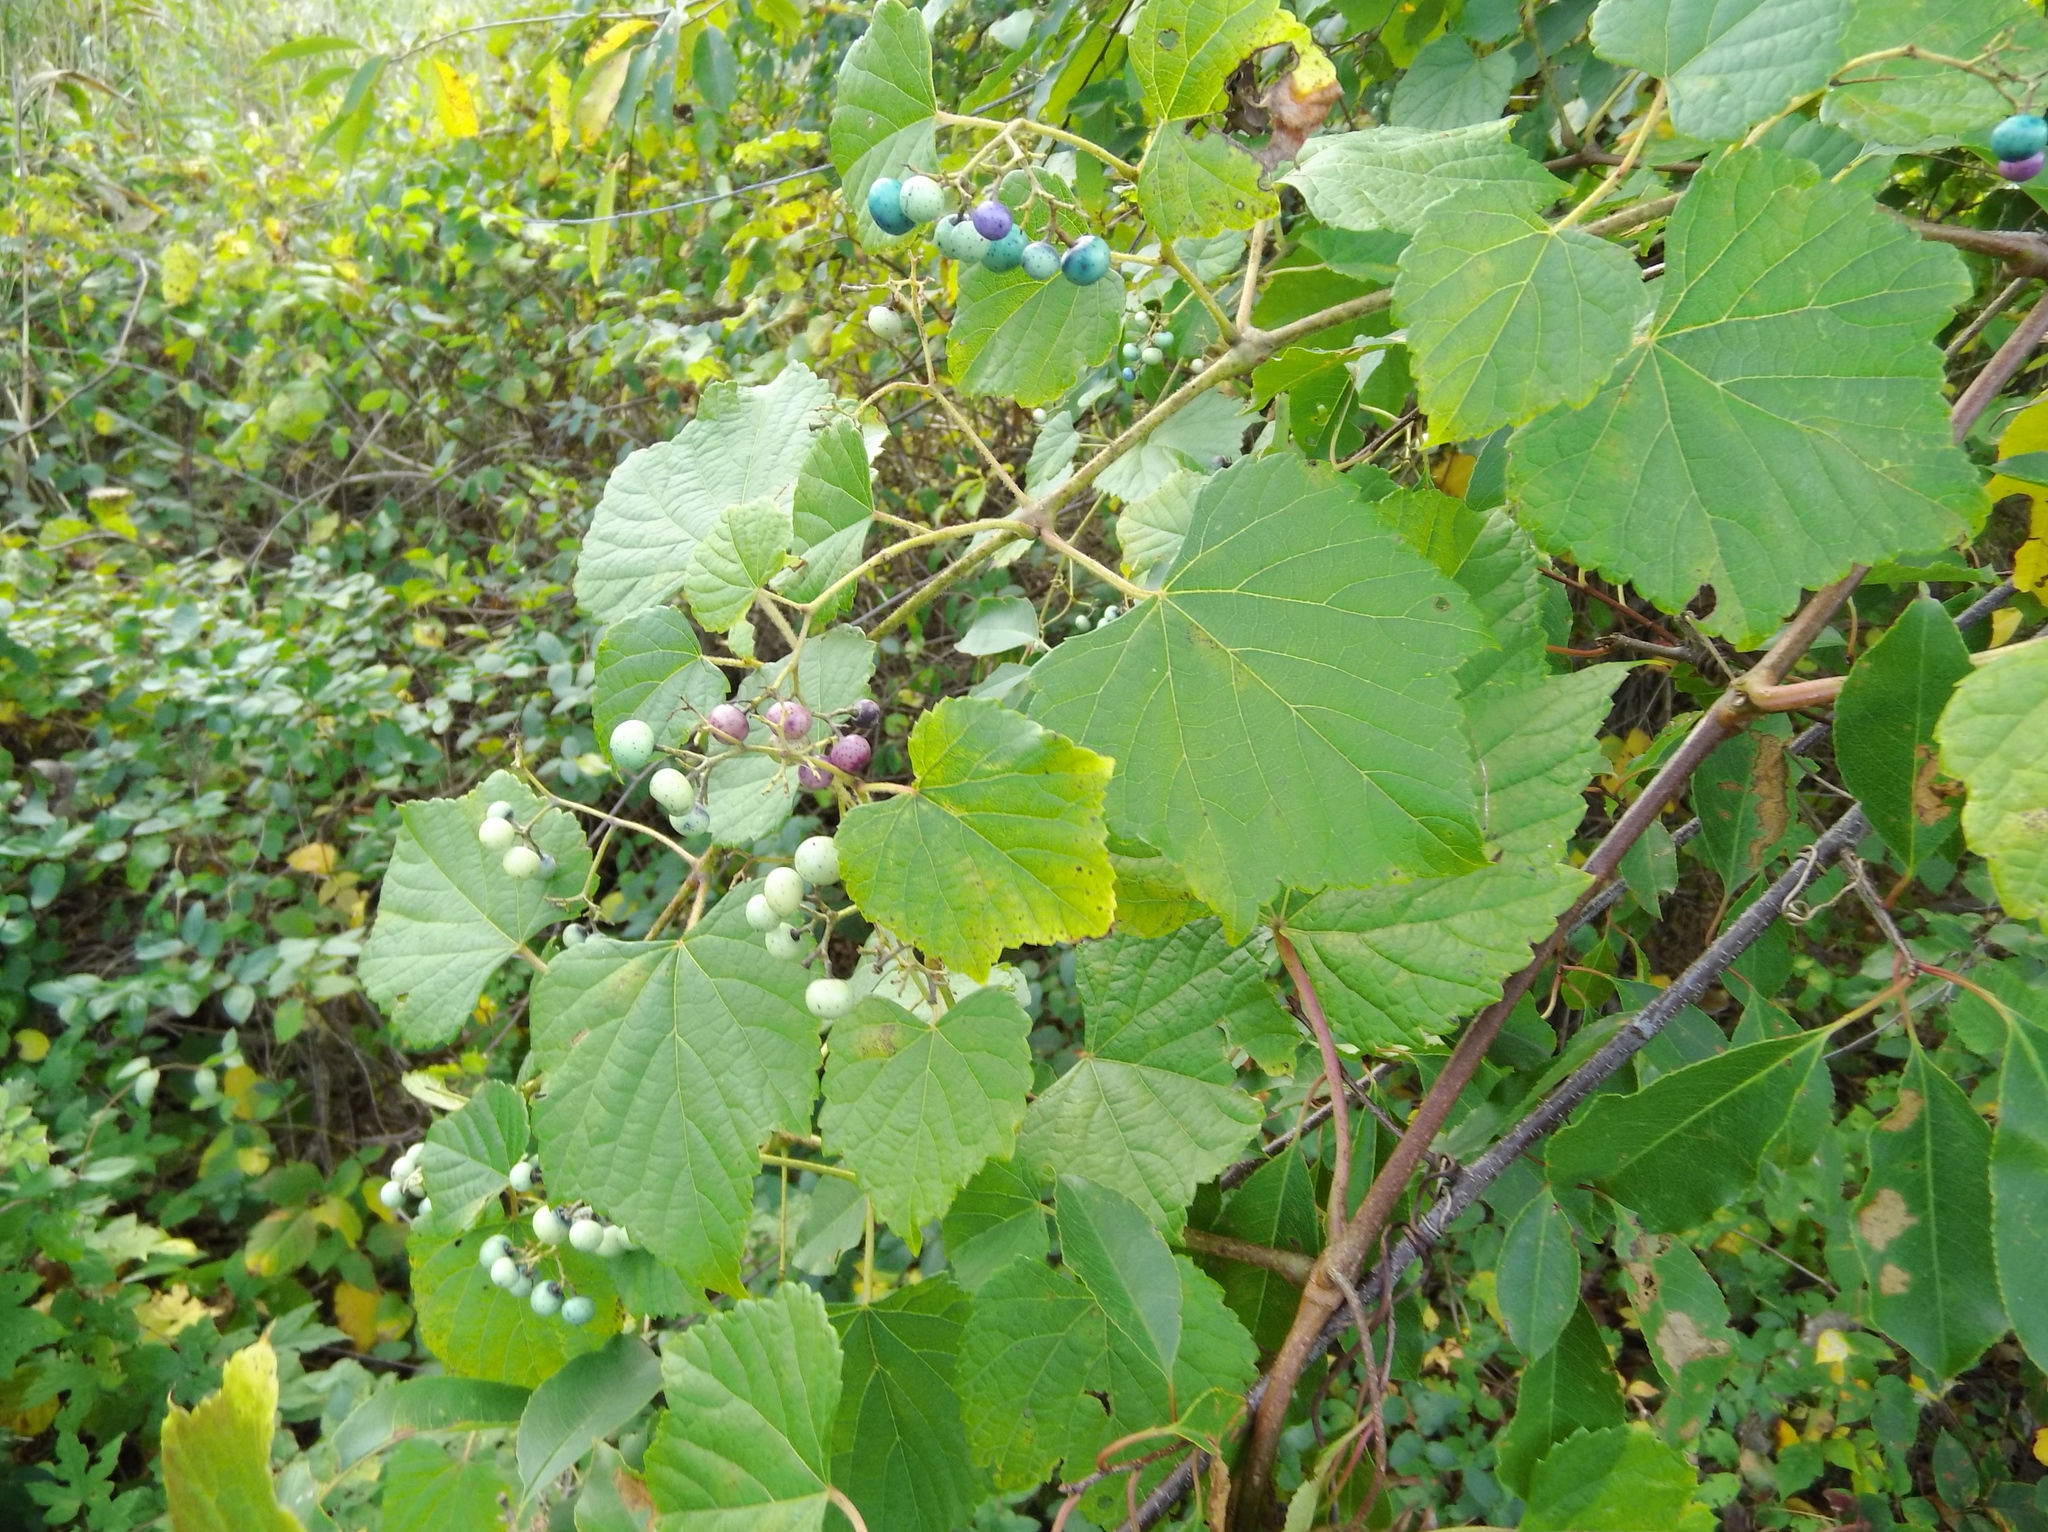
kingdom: Plantae
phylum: Tracheophyta
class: Magnoliopsida
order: Vitales
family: Vitaceae
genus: Ampelopsis
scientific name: Ampelopsis glandulosa
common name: Amur peppervine
